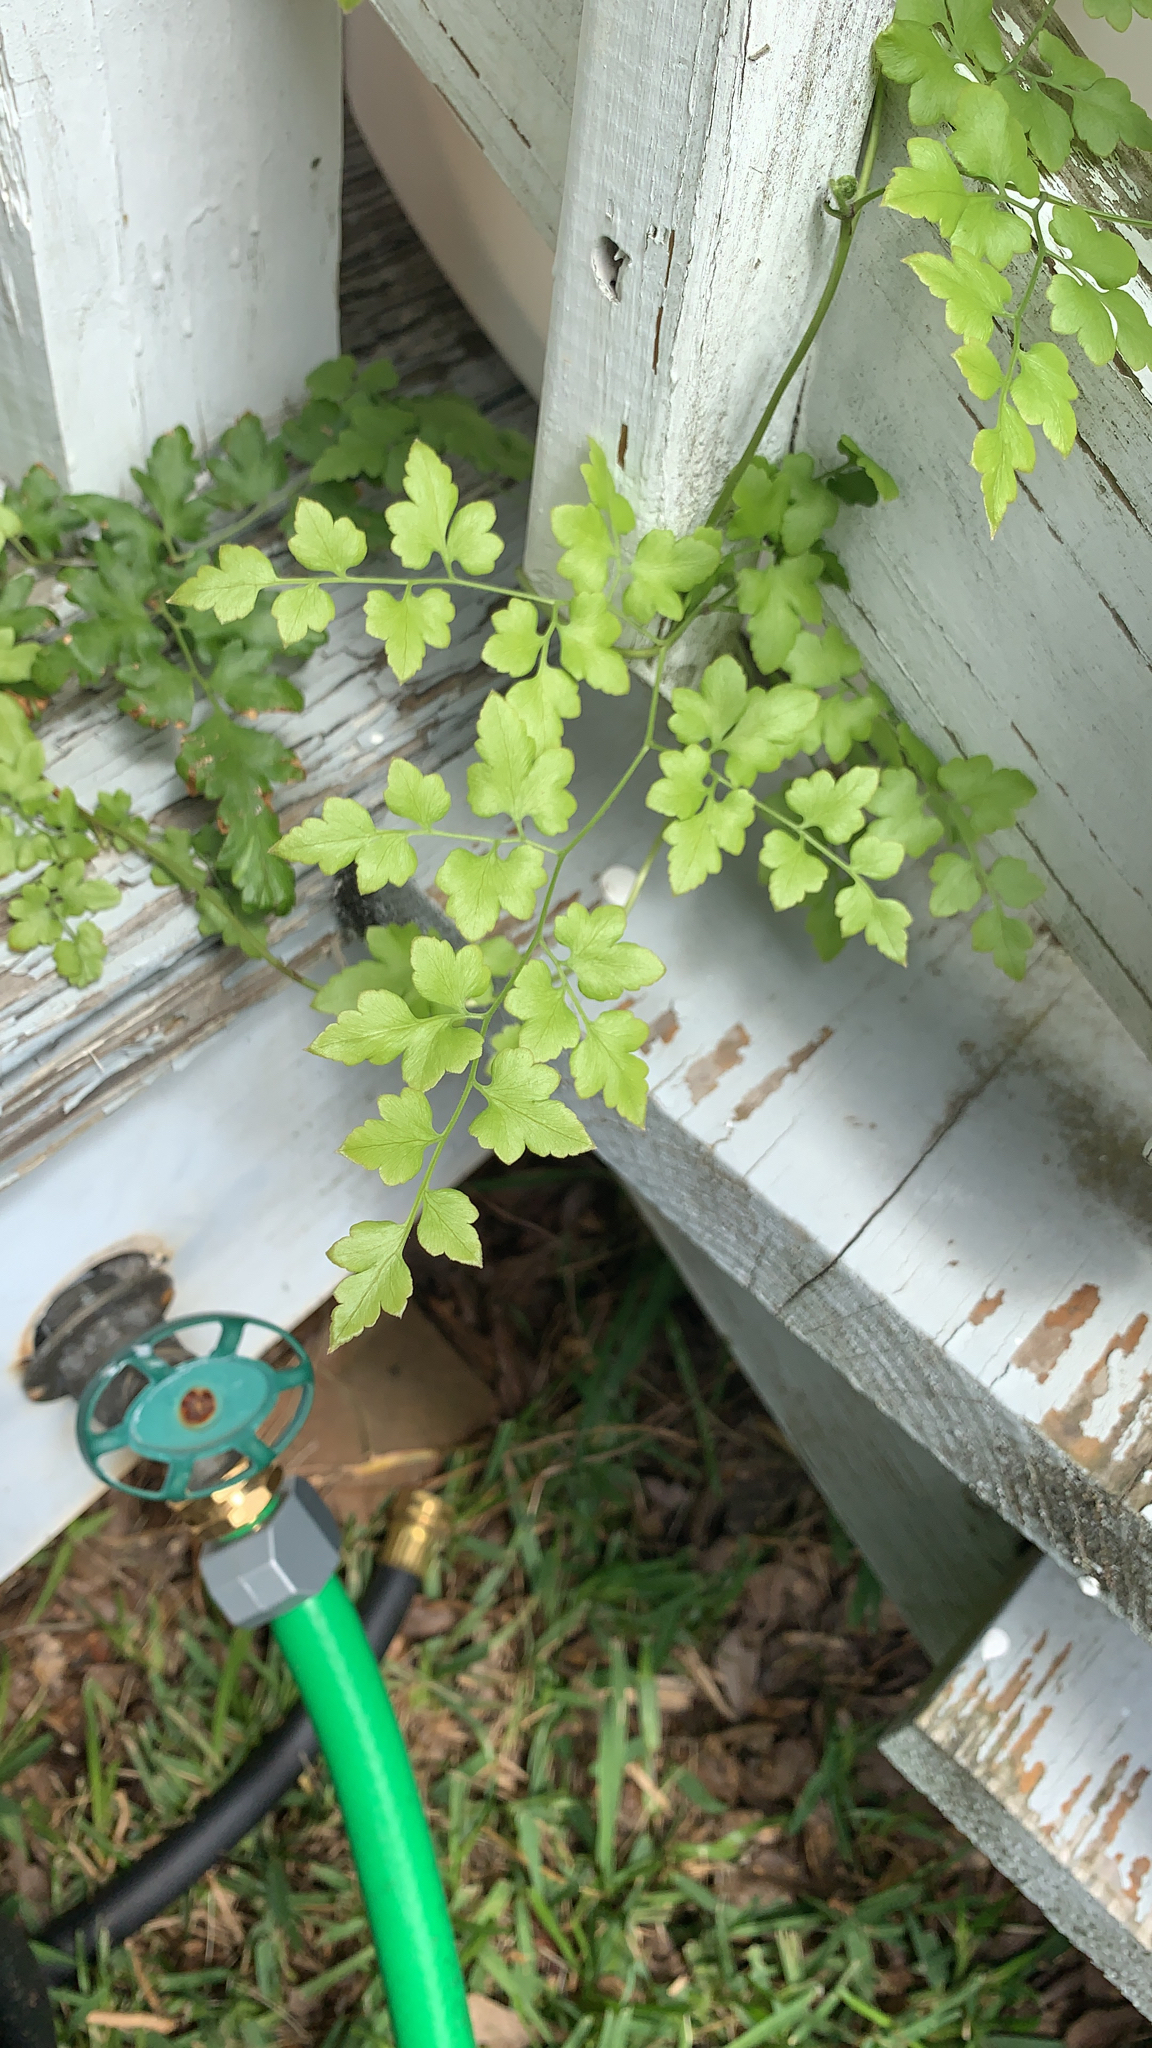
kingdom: Plantae
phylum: Tracheophyta
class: Polypodiopsida
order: Schizaeales
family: Lygodiaceae
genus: Lygodium
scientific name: Lygodium japonicum
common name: Japanese climbing fern
